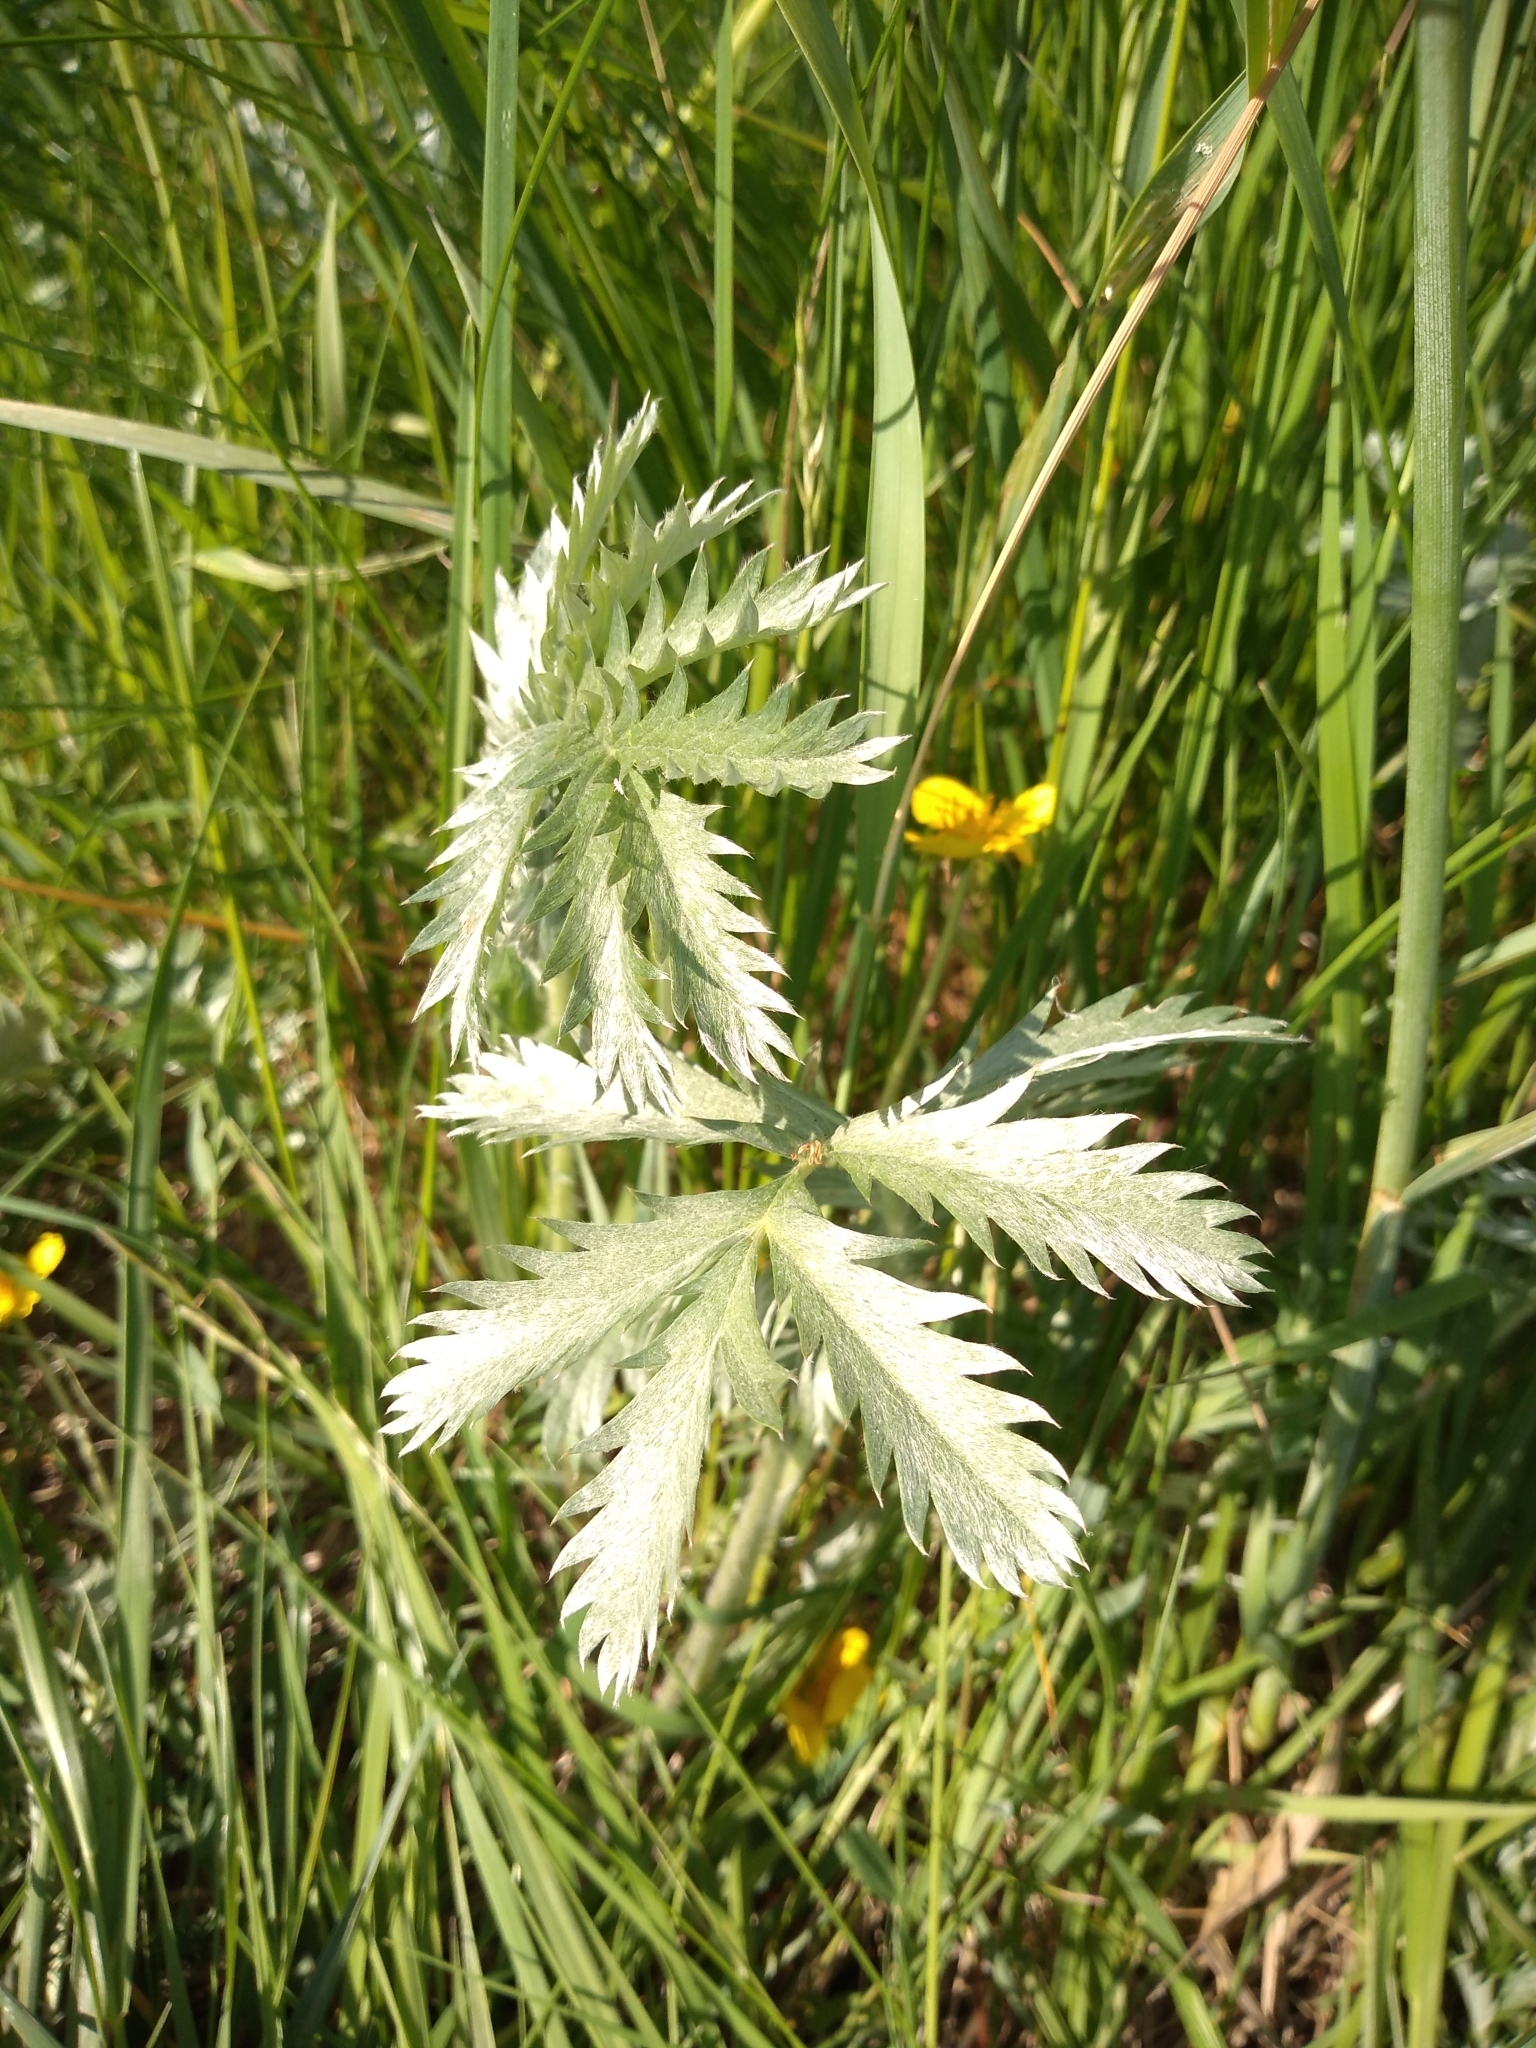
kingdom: Plantae
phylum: Tracheophyta
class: Magnoliopsida
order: Rosales
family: Rosaceae
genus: Argentina
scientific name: Argentina anserina
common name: Common silverweed
